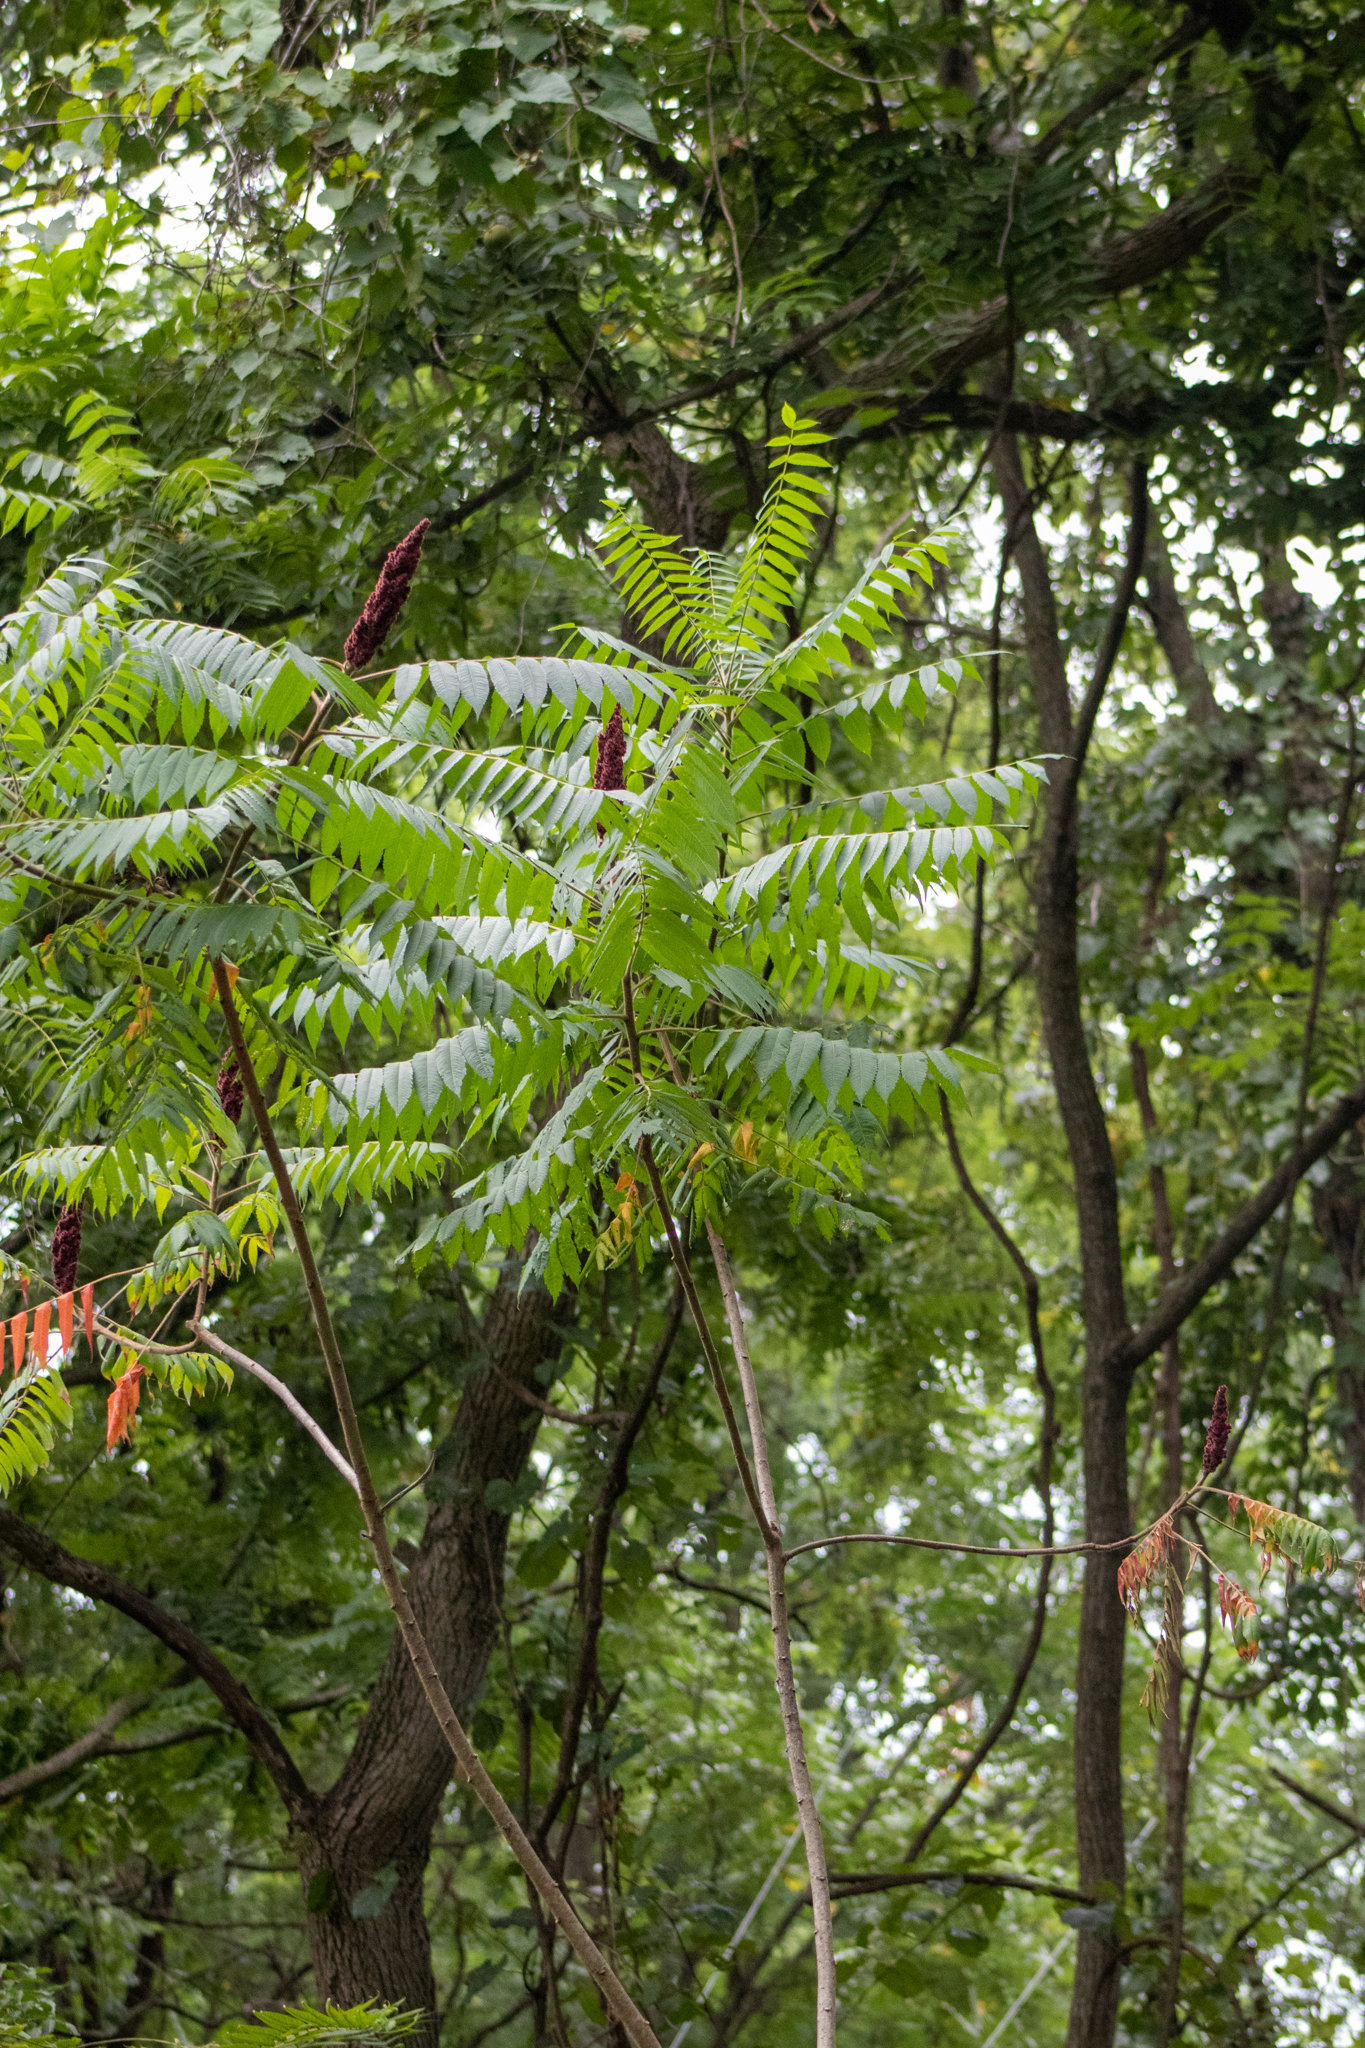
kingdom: Plantae
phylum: Tracheophyta
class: Magnoliopsida
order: Sapindales
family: Anacardiaceae
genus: Rhus
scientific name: Rhus typhina
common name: Staghorn sumac
